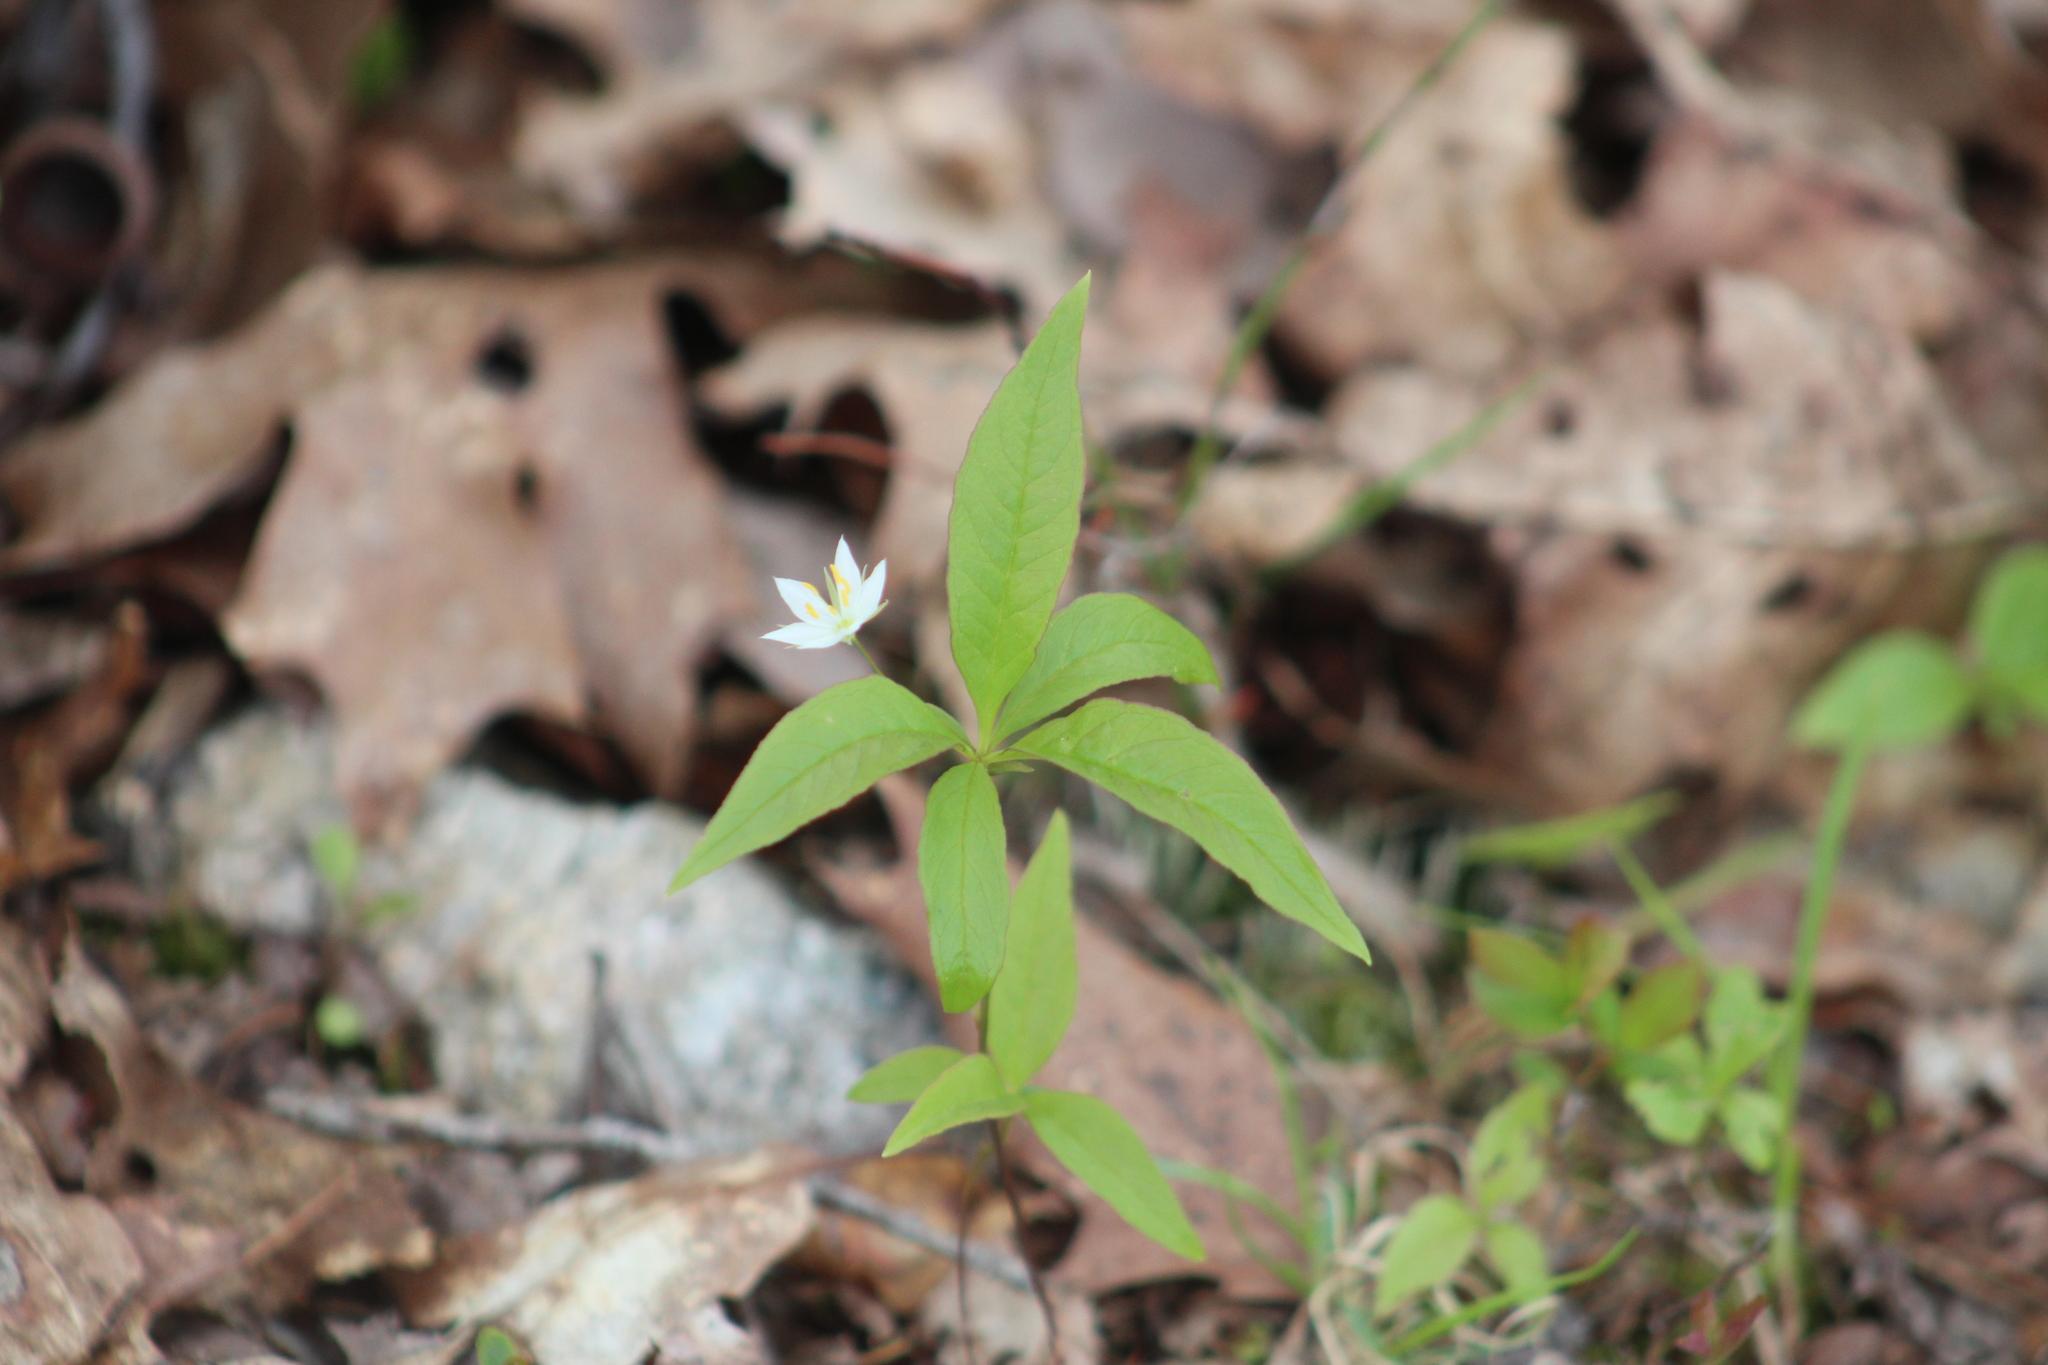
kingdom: Plantae
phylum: Tracheophyta
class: Magnoliopsida
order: Ericales
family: Primulaceae
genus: Lysimachia
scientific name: Lysimachia borealis
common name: American starflower
